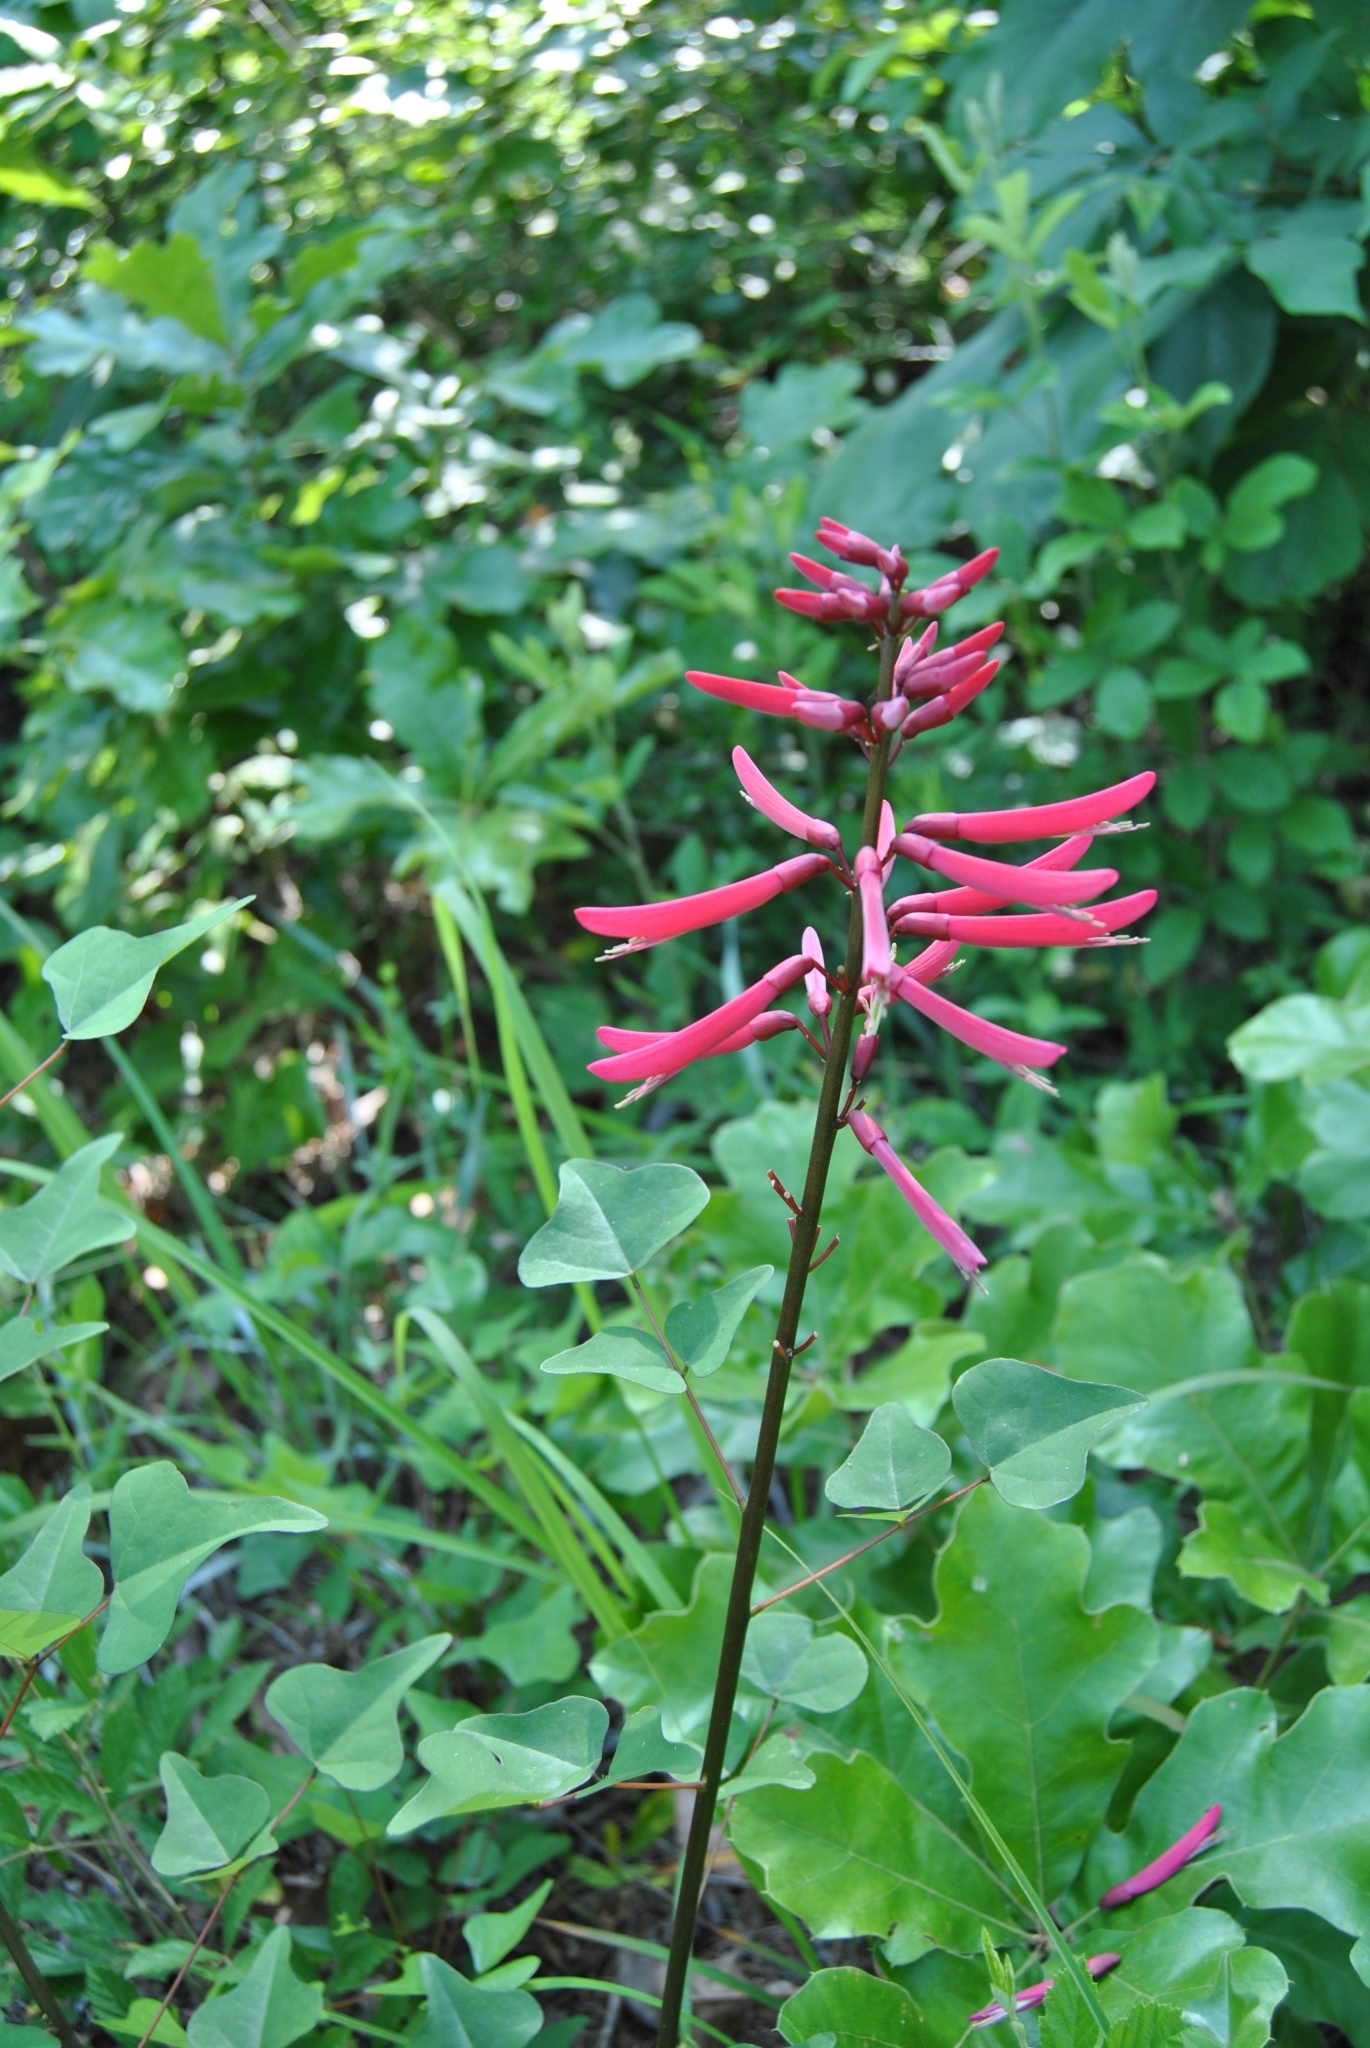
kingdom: Plantae
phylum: Tracheophyta
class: Magnoliopsida
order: Fabales
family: Fabaceae
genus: Erythrina
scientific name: Erythrina herbacea
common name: Coral-bean
